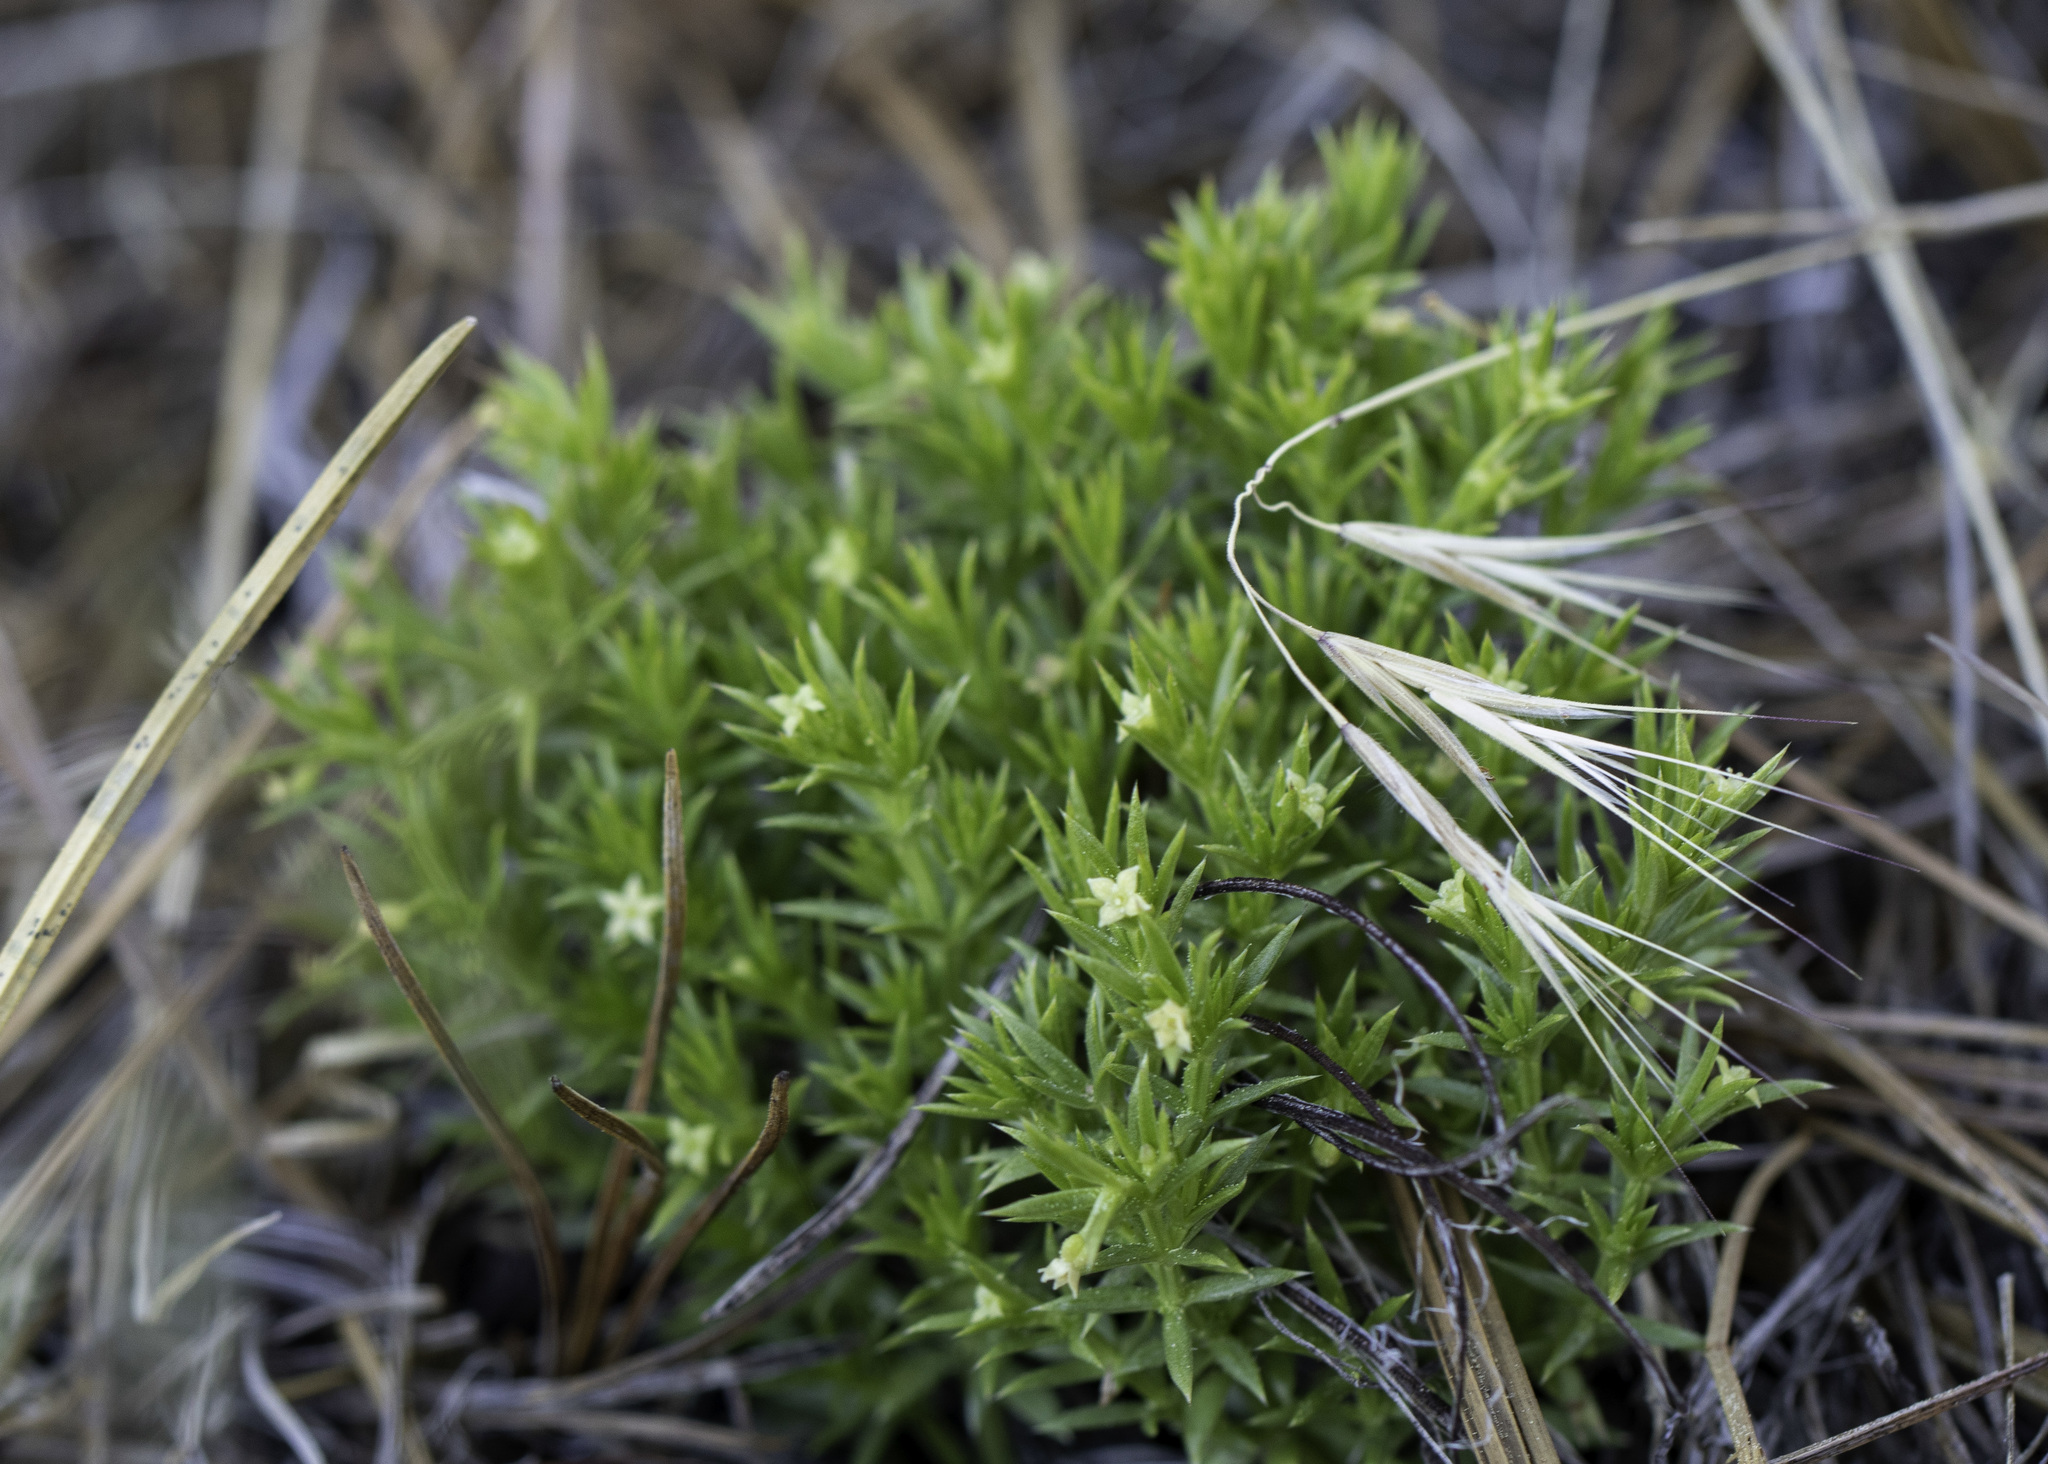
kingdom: Plantae
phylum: Tracheophyta
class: Magnoliopsida
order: Gentianales
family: Rubiaceae
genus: Galium
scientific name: Galium andrewsii
